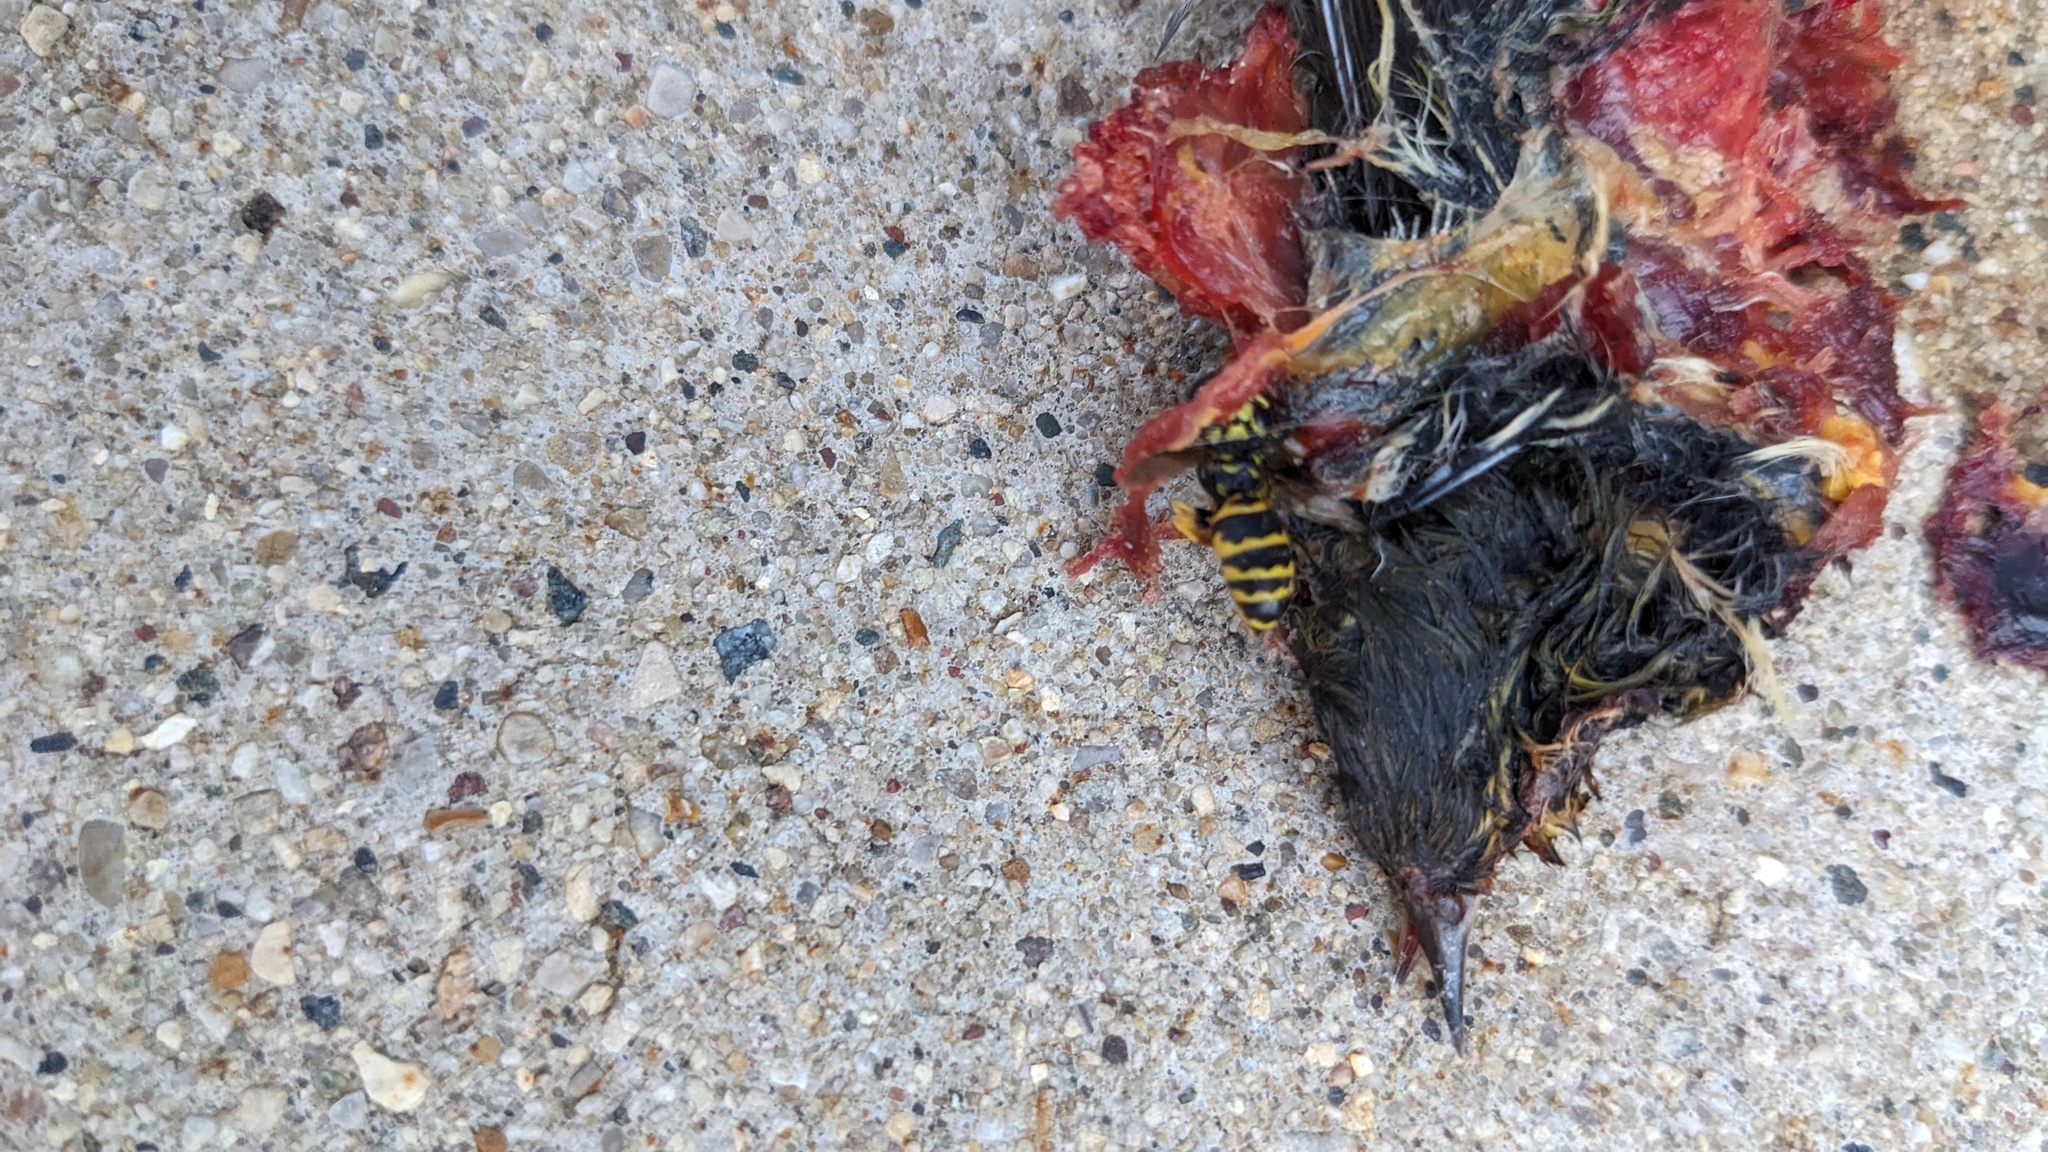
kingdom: Animalia
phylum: Arthropoda
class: Insecta
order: Hymenoptera
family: Vespidae
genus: Vespula
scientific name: Vespula maculifrons
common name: Eastern yellowjacket
